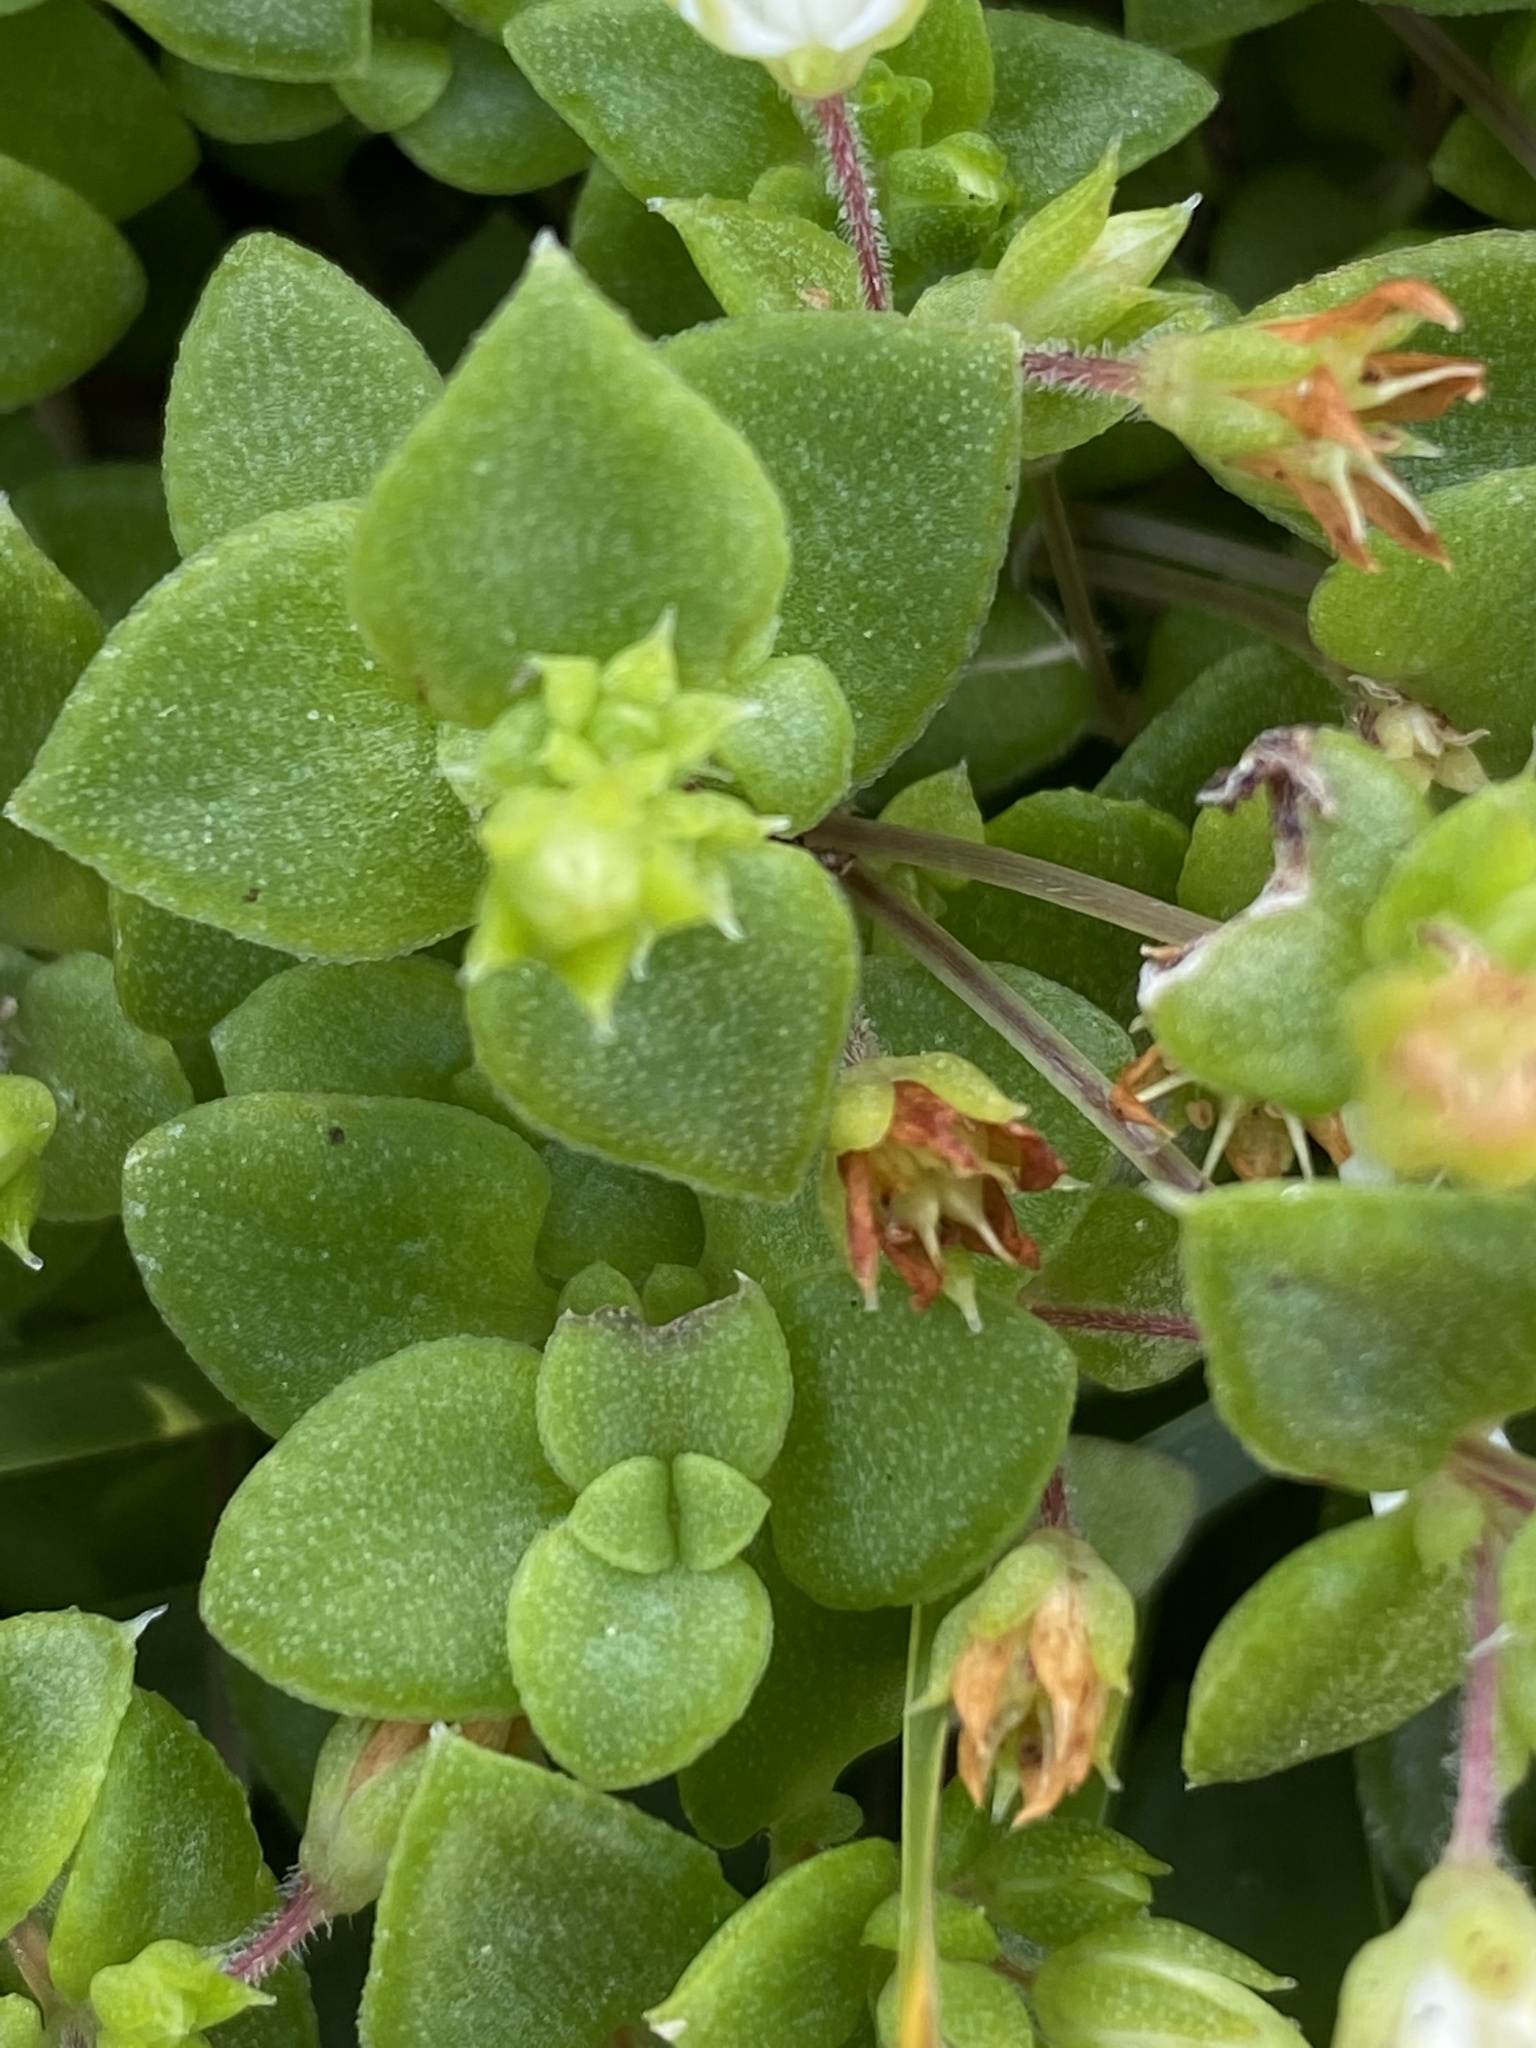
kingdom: Plantae
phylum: Tracheophyta
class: Magnoliopsida
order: Saxifragales
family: Crassulaceae
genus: Crassula
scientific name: Crassula pellucida
